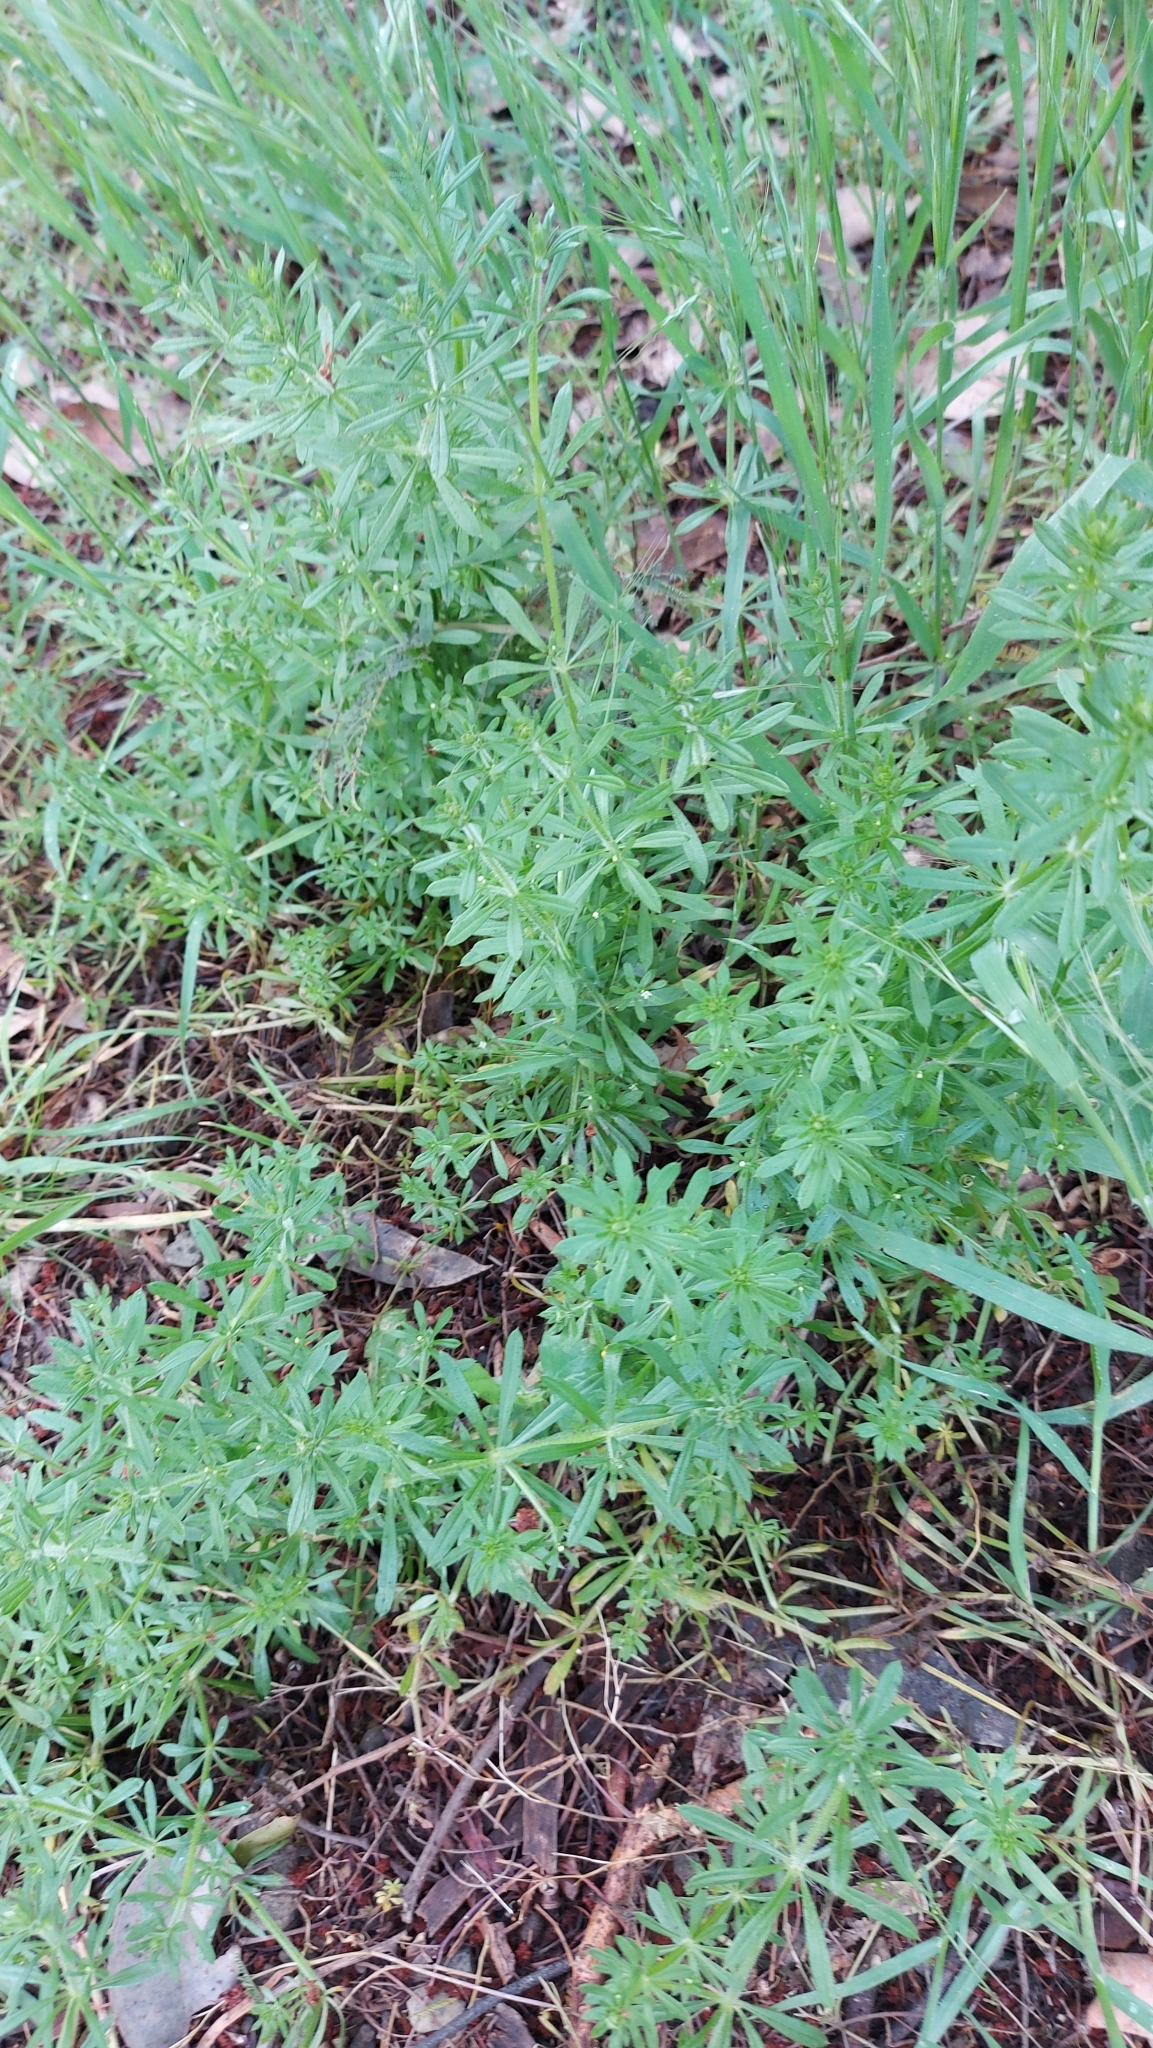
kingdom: Plantae
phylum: Tracheophyta
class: Magnoliopsida
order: Gentianales
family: Rubiaceae
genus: Galium
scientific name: Galium aparine
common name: Cleavers
